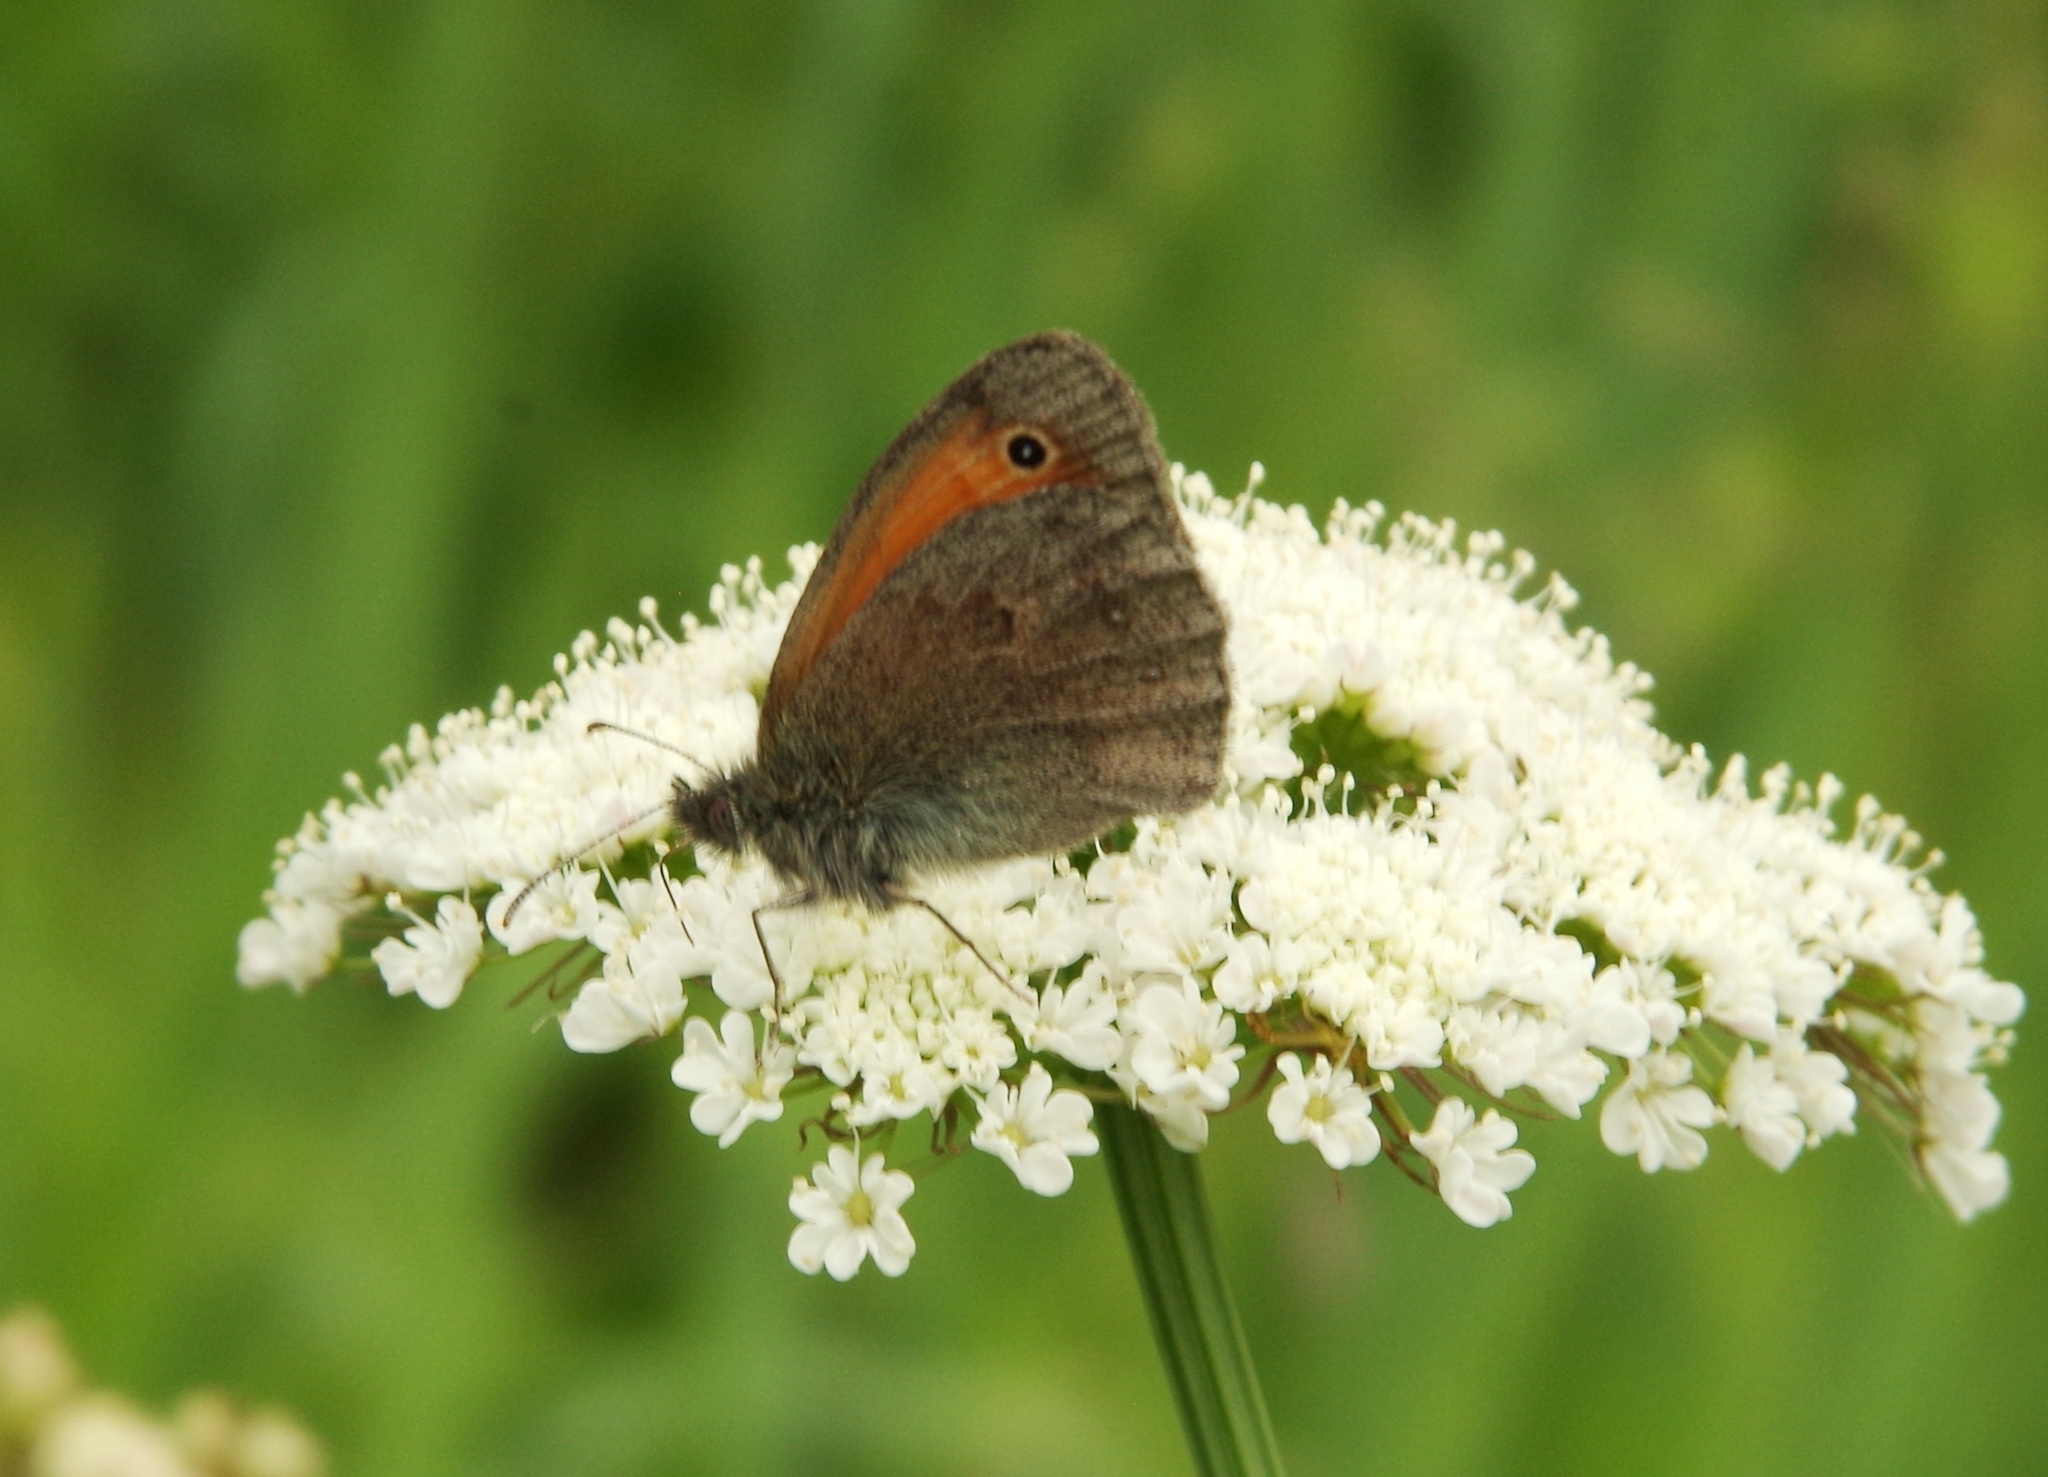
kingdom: Animalia
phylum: Arthropoda
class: Insecta
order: Lepidoptera
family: Nymphalidae
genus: Coenonympha
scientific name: Coenonympha pamphilus
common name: Small heath
